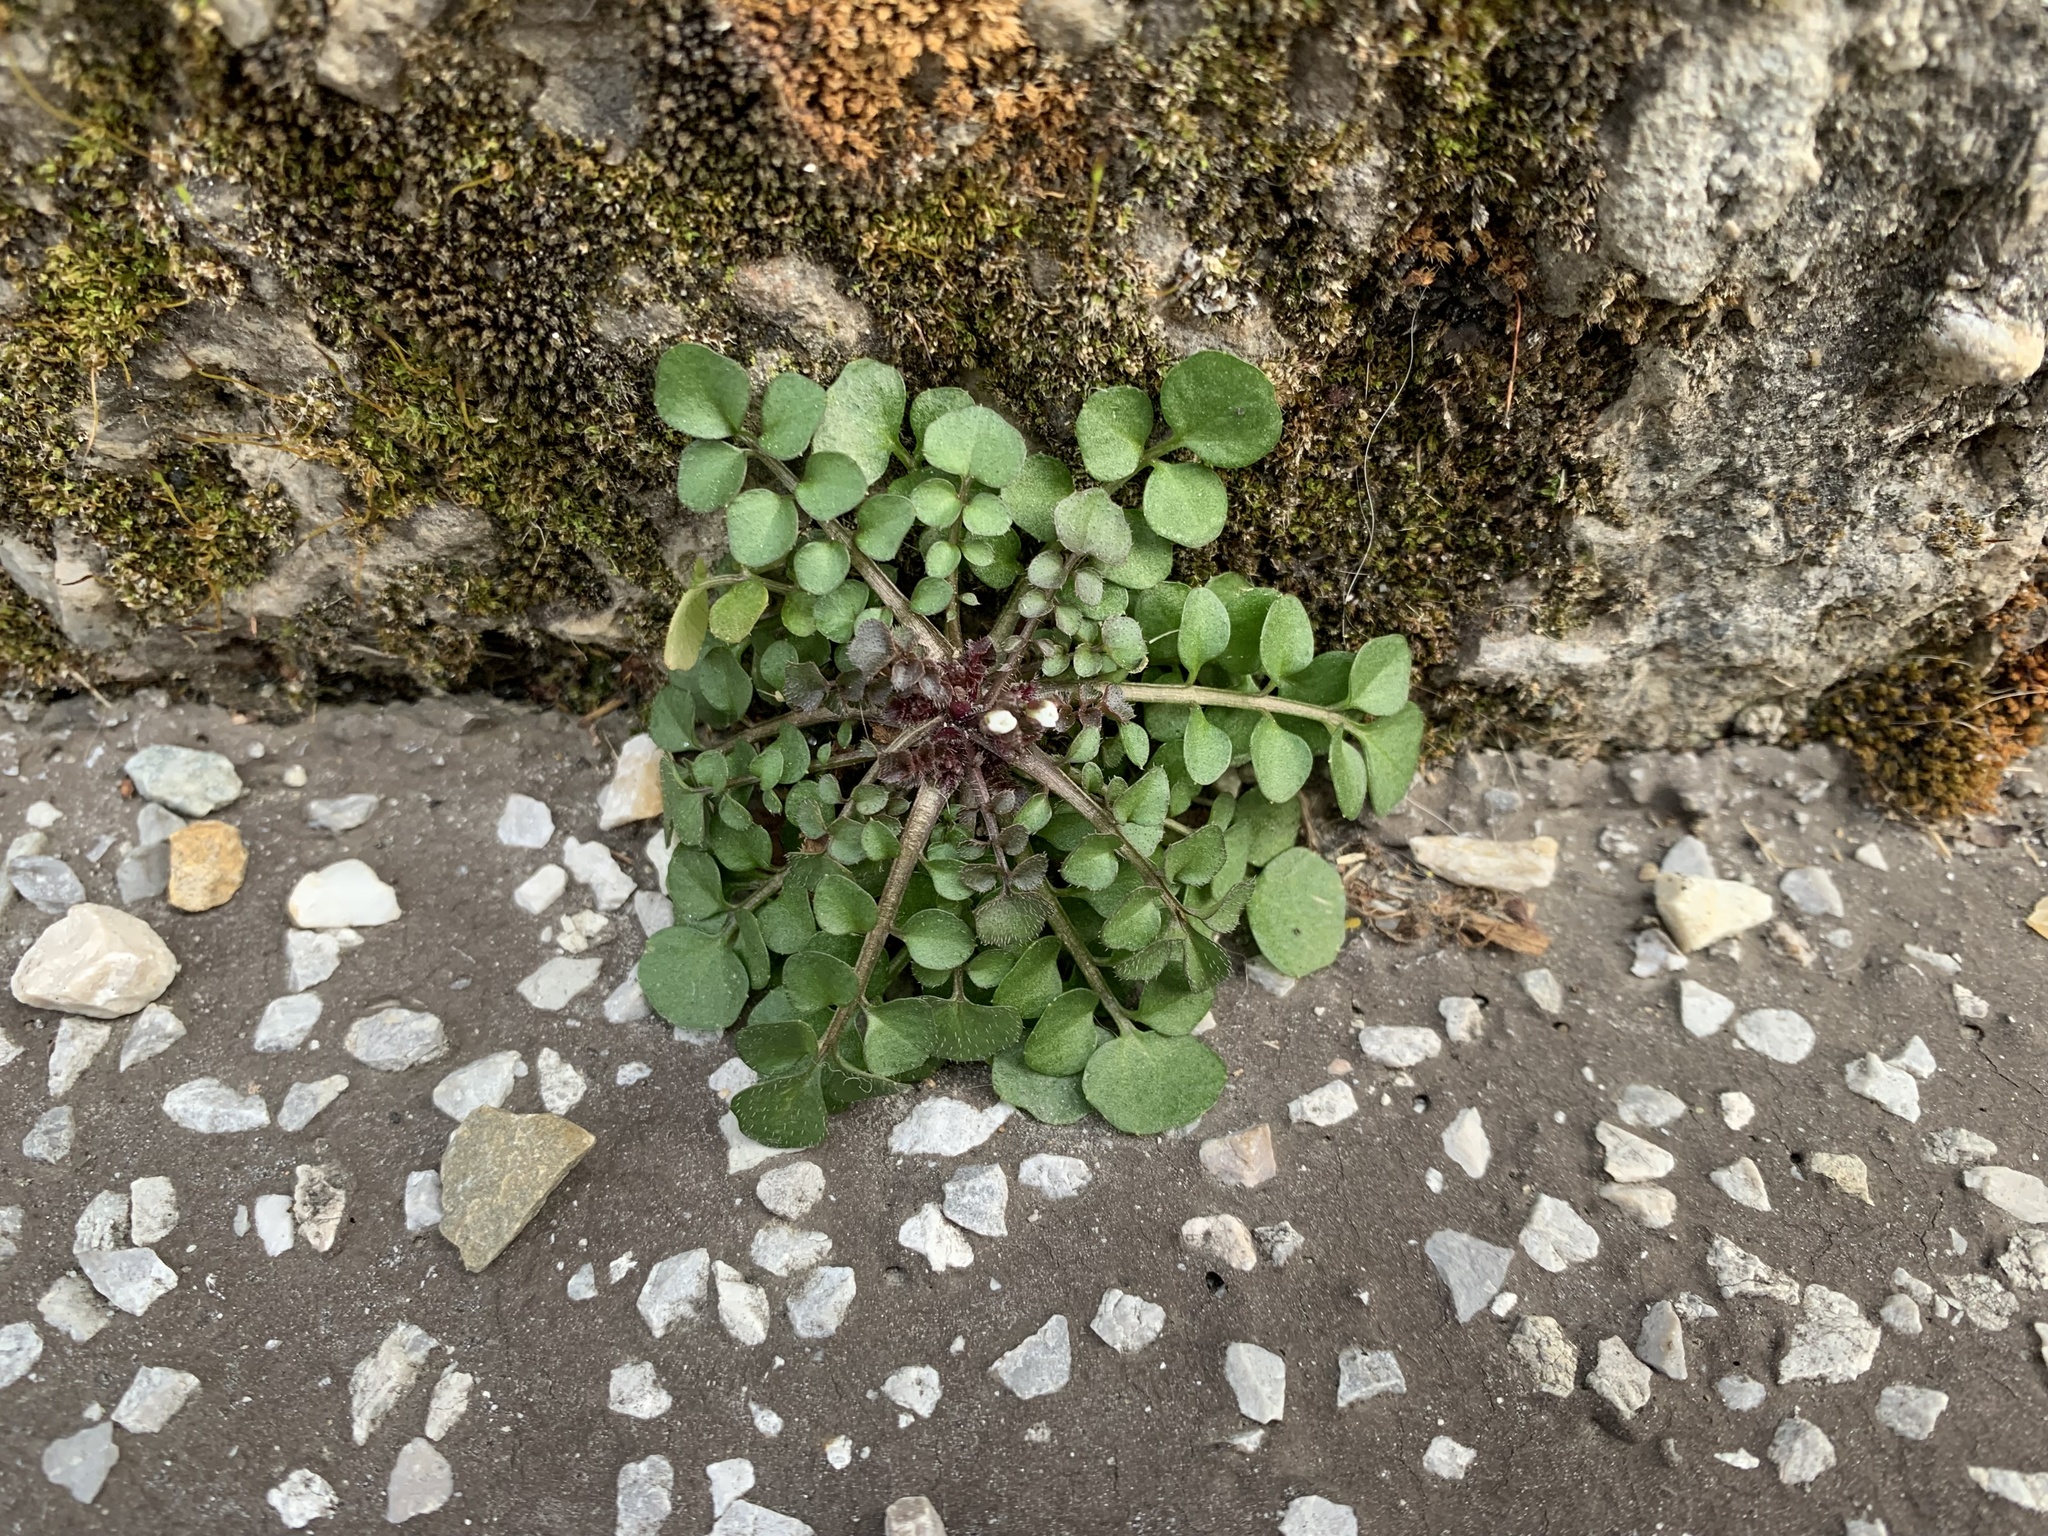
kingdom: Plantae
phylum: Tracheophyta
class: Magnoliopsida
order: Brassicales
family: Brassicaceae
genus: Cardamine
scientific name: Cardamine hirsuta
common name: Hairy bittercress
